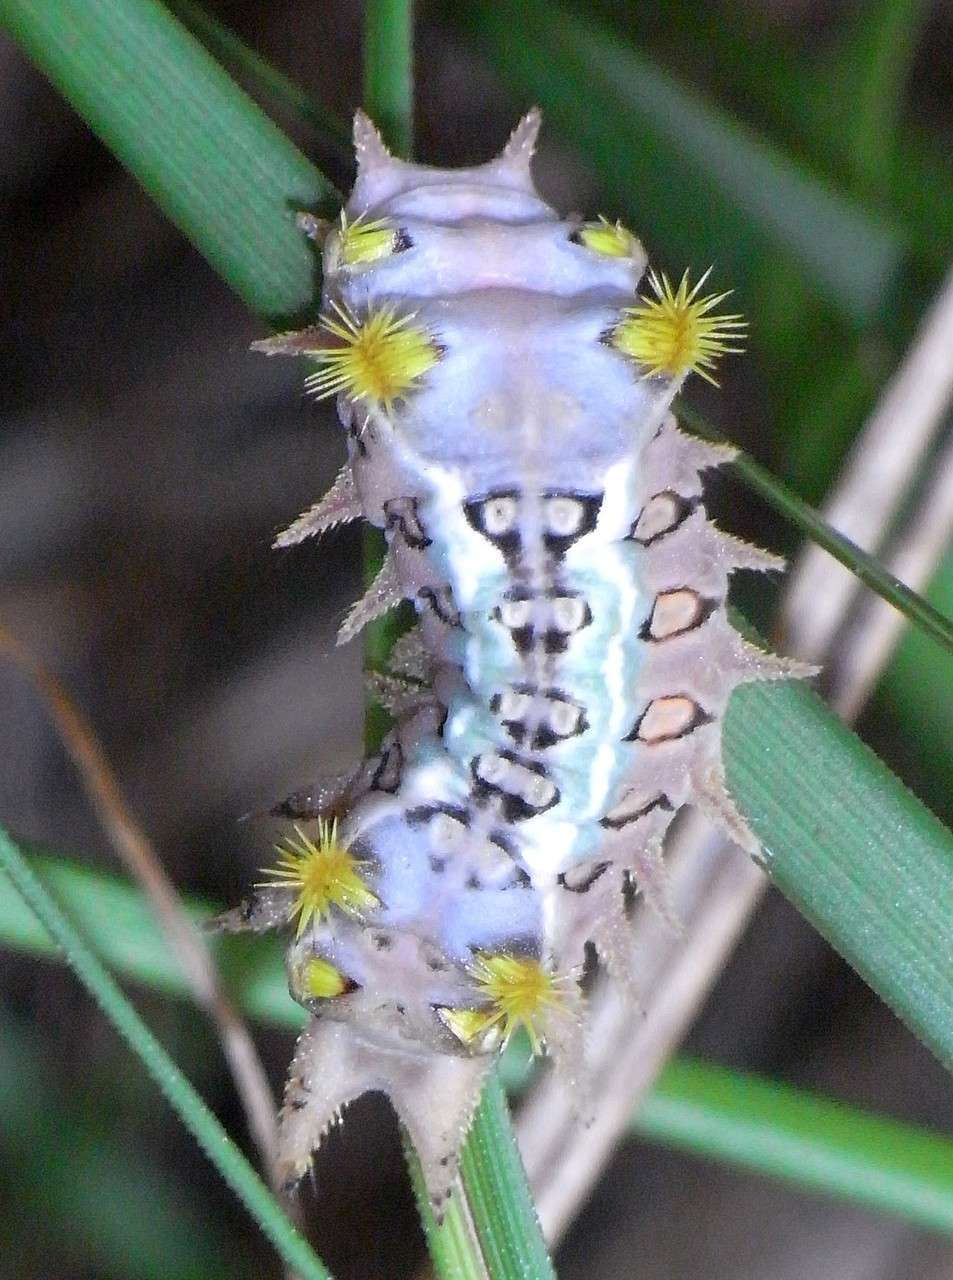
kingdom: Animalia
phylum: Arthropoda
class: Insecta
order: Lepidoptera
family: Limacodidae
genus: Doratifera
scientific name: Doratifera oxleyi
